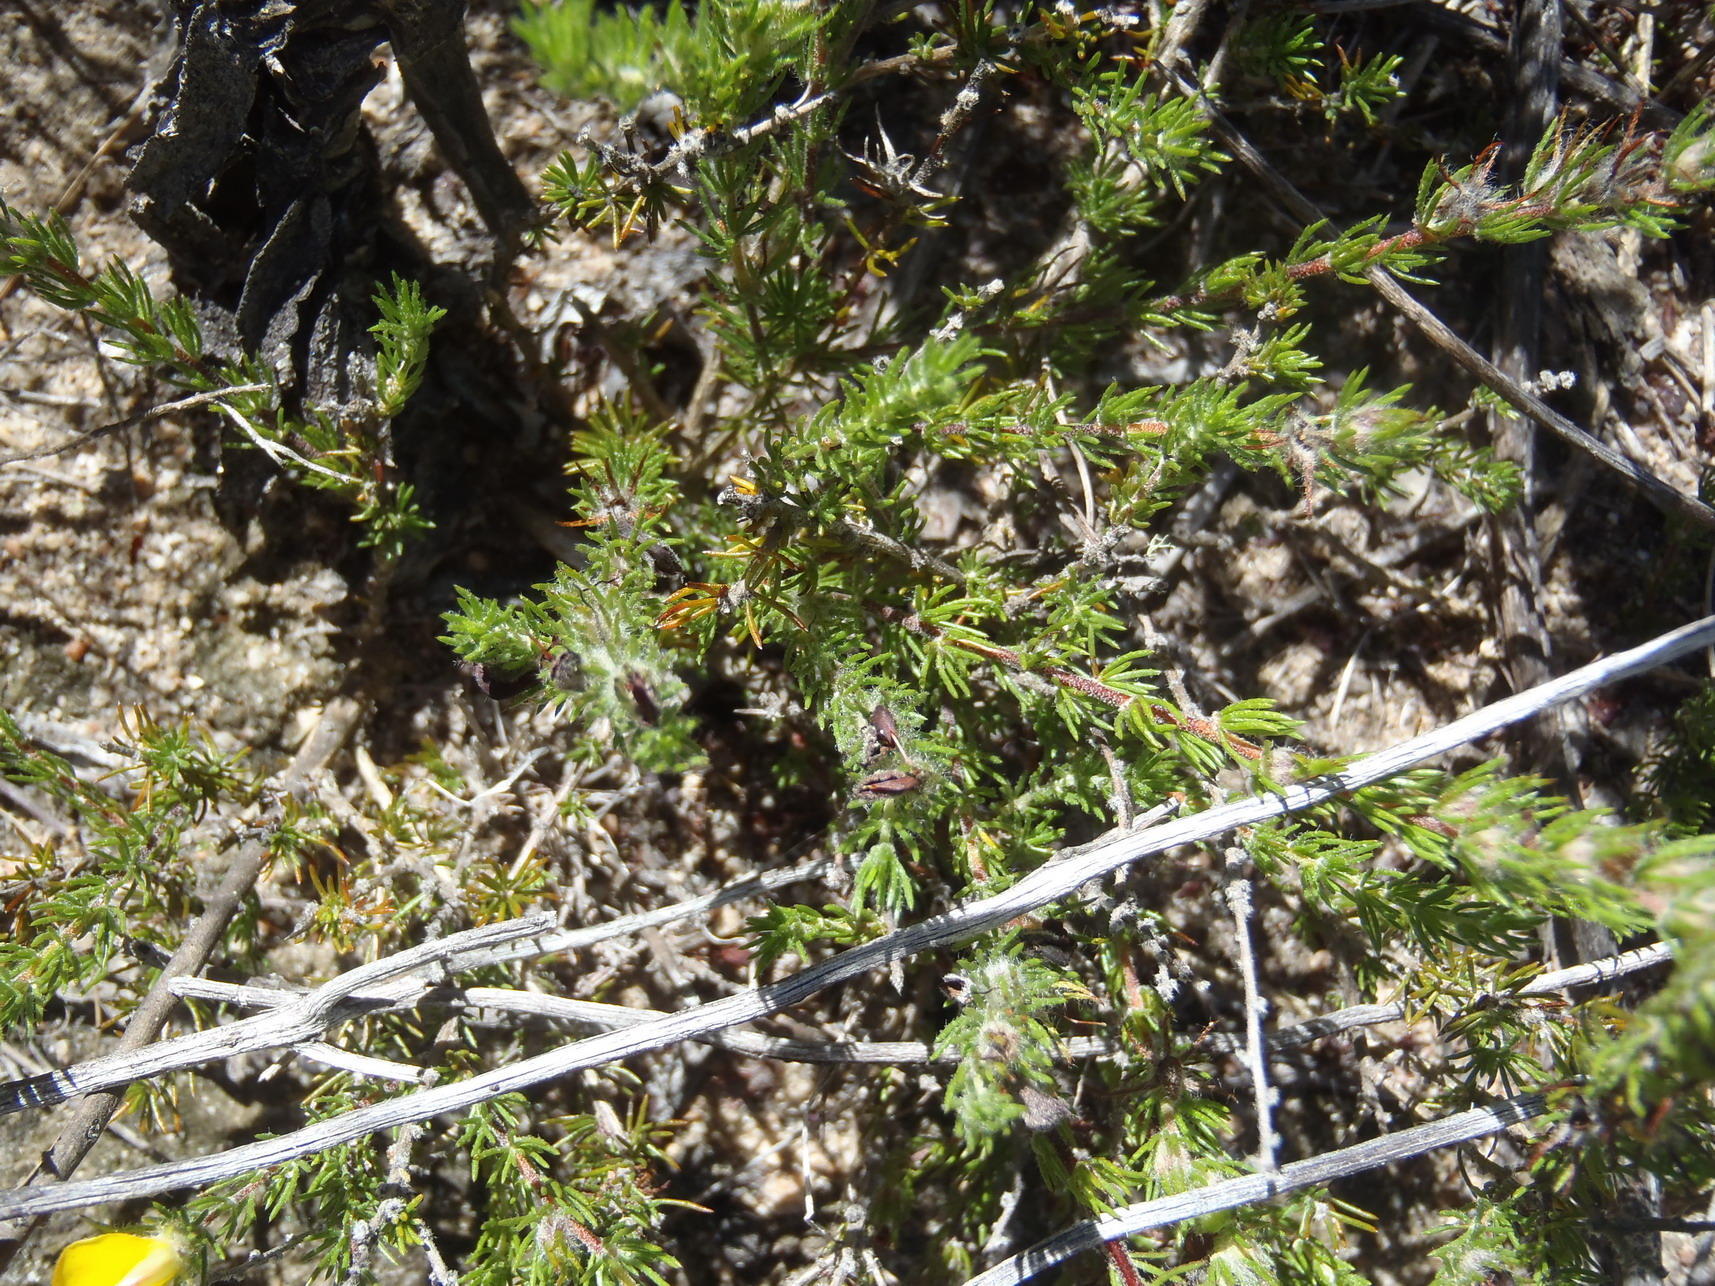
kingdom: Plantae
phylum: Tracheophyta
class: Magnoliopsida
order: Fabales
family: Fabaceae
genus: Aspalathus
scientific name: Aspalathus ciliaris
